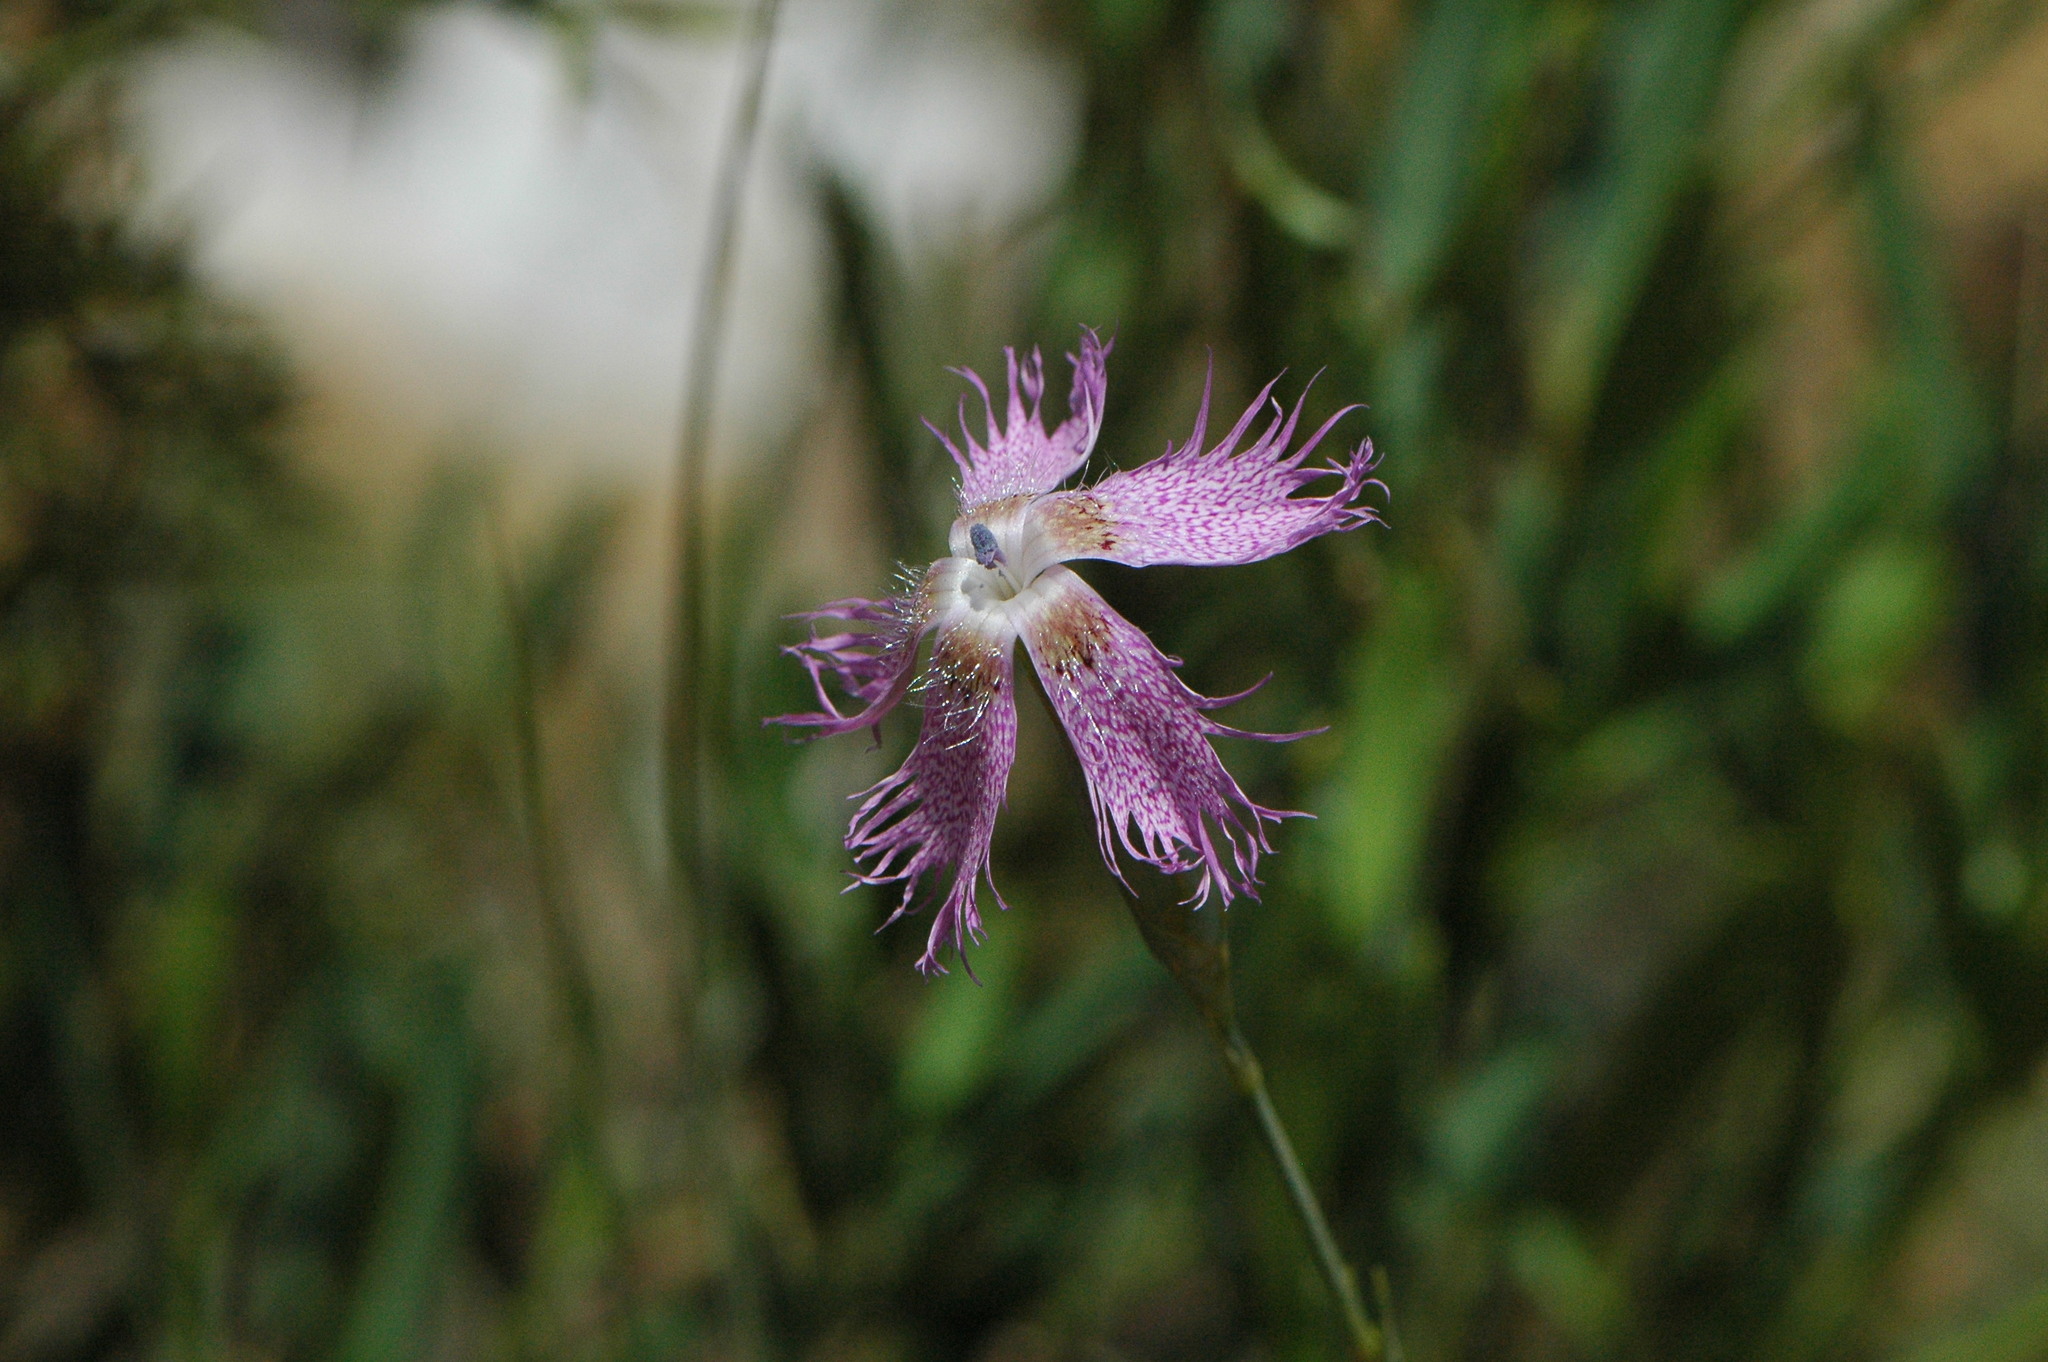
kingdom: Plantae
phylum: Tracheophyta
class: Magnoliopsida
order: Caryophyllales
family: Caryophyllaceae
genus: Dianthus
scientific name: Dianthus broteri
